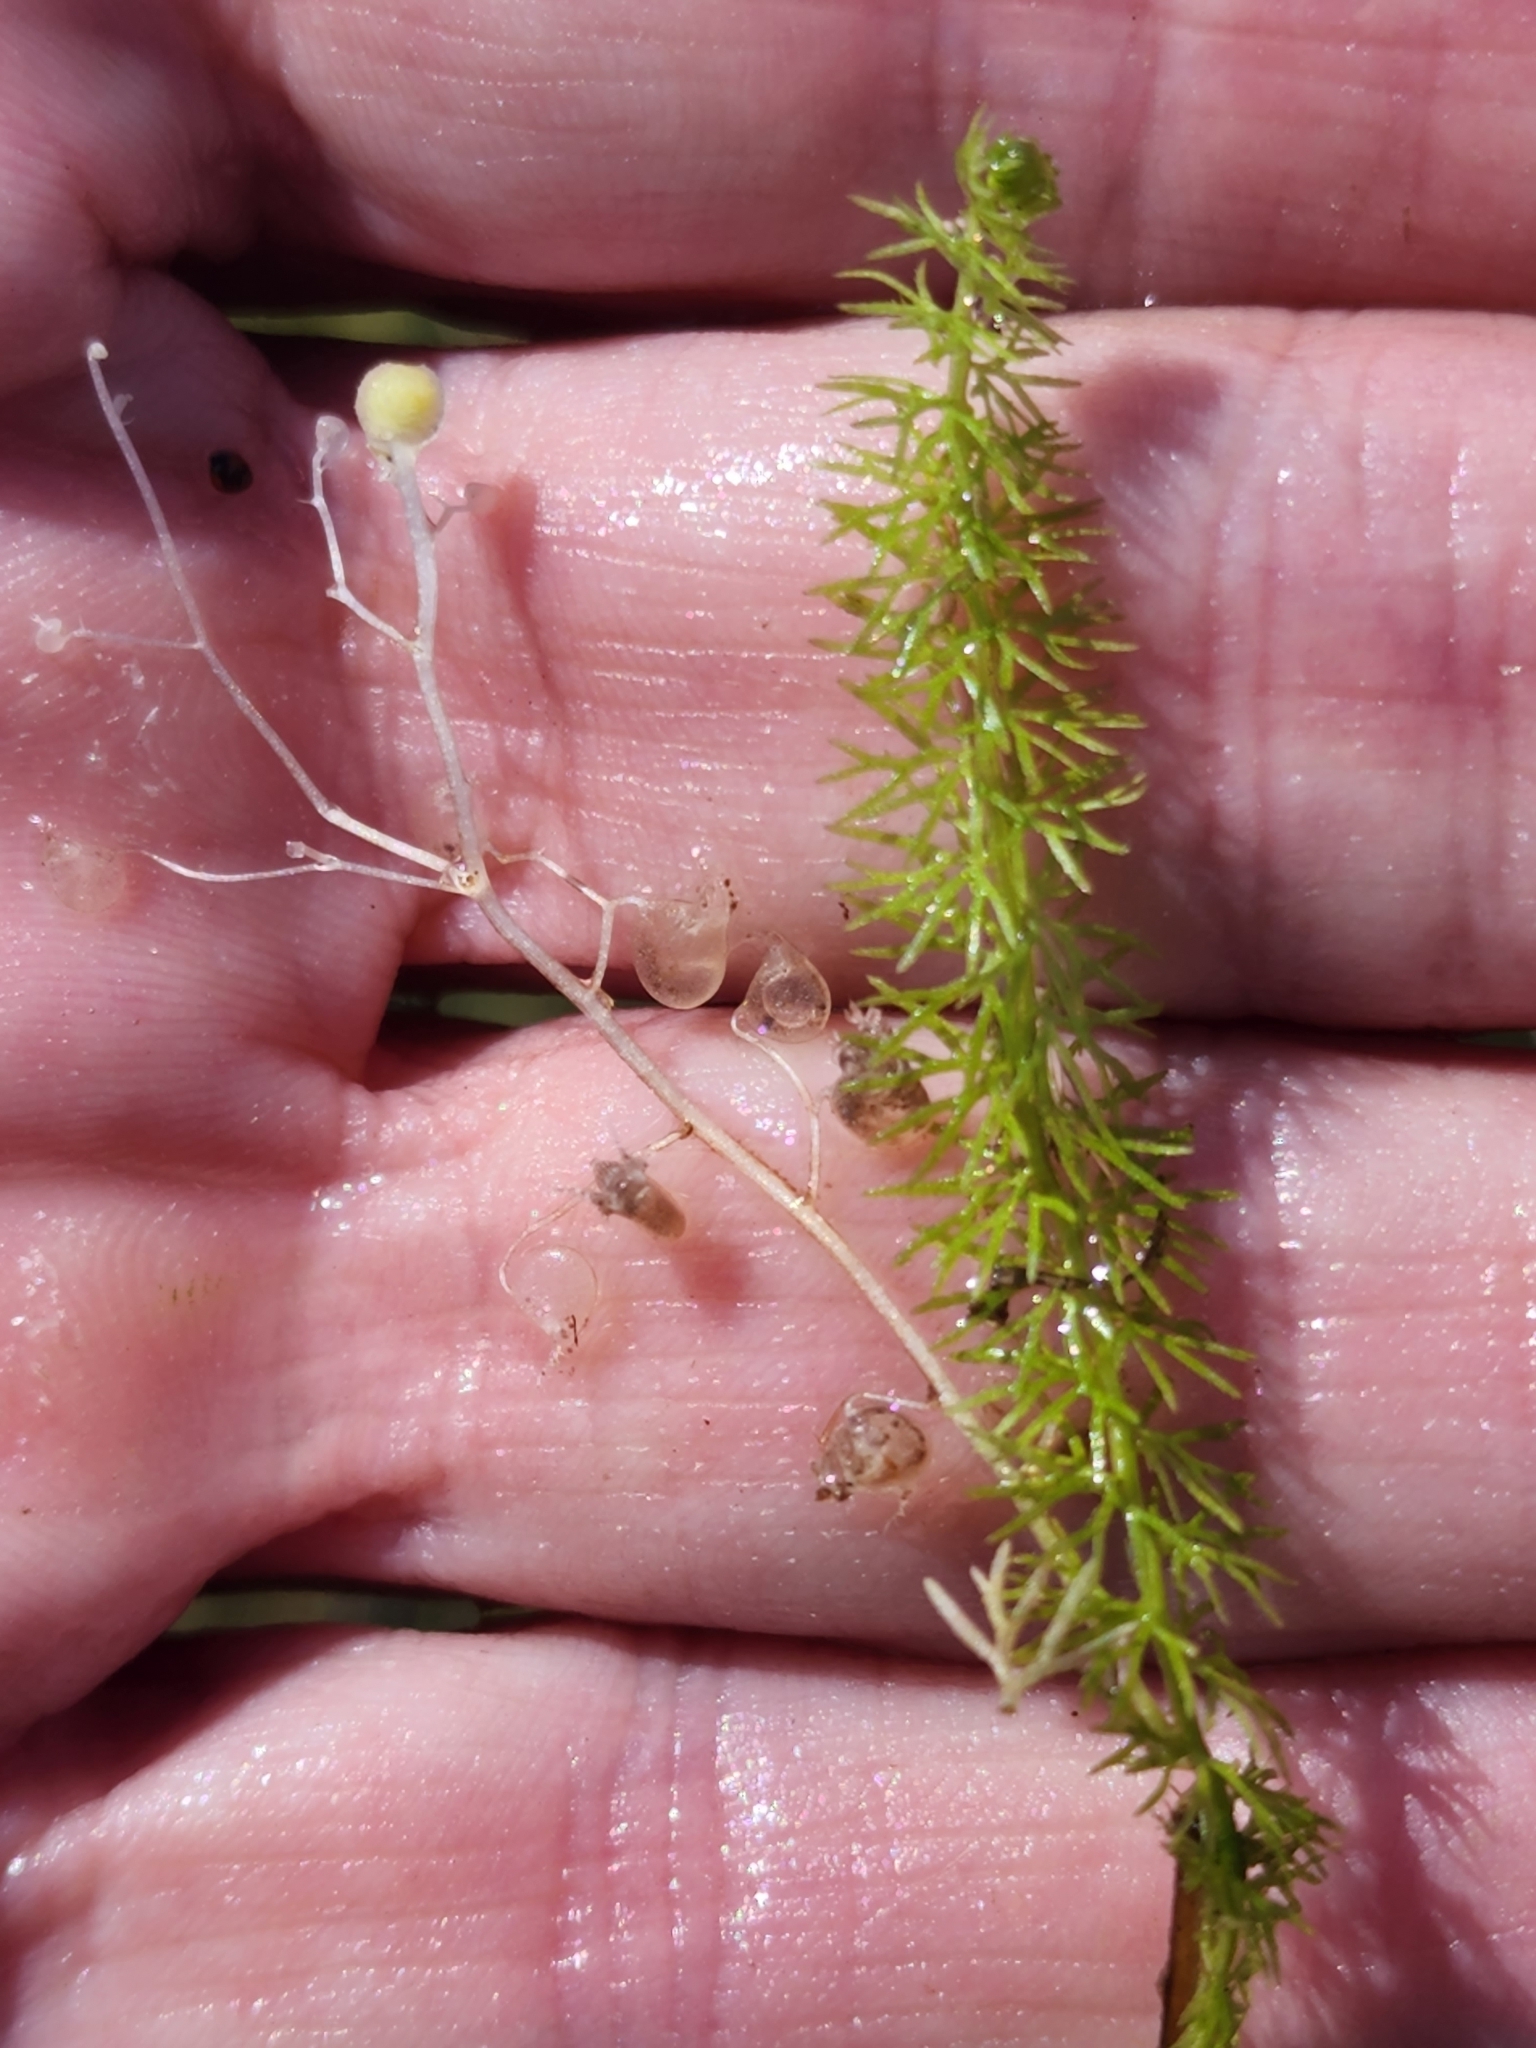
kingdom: Plantae
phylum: Tracheophyta
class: Magnoliopsida
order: Lamiales
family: Lentibulariaceae
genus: Utricularia
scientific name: Utricularia intermedia
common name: Intermediate bladderwort
